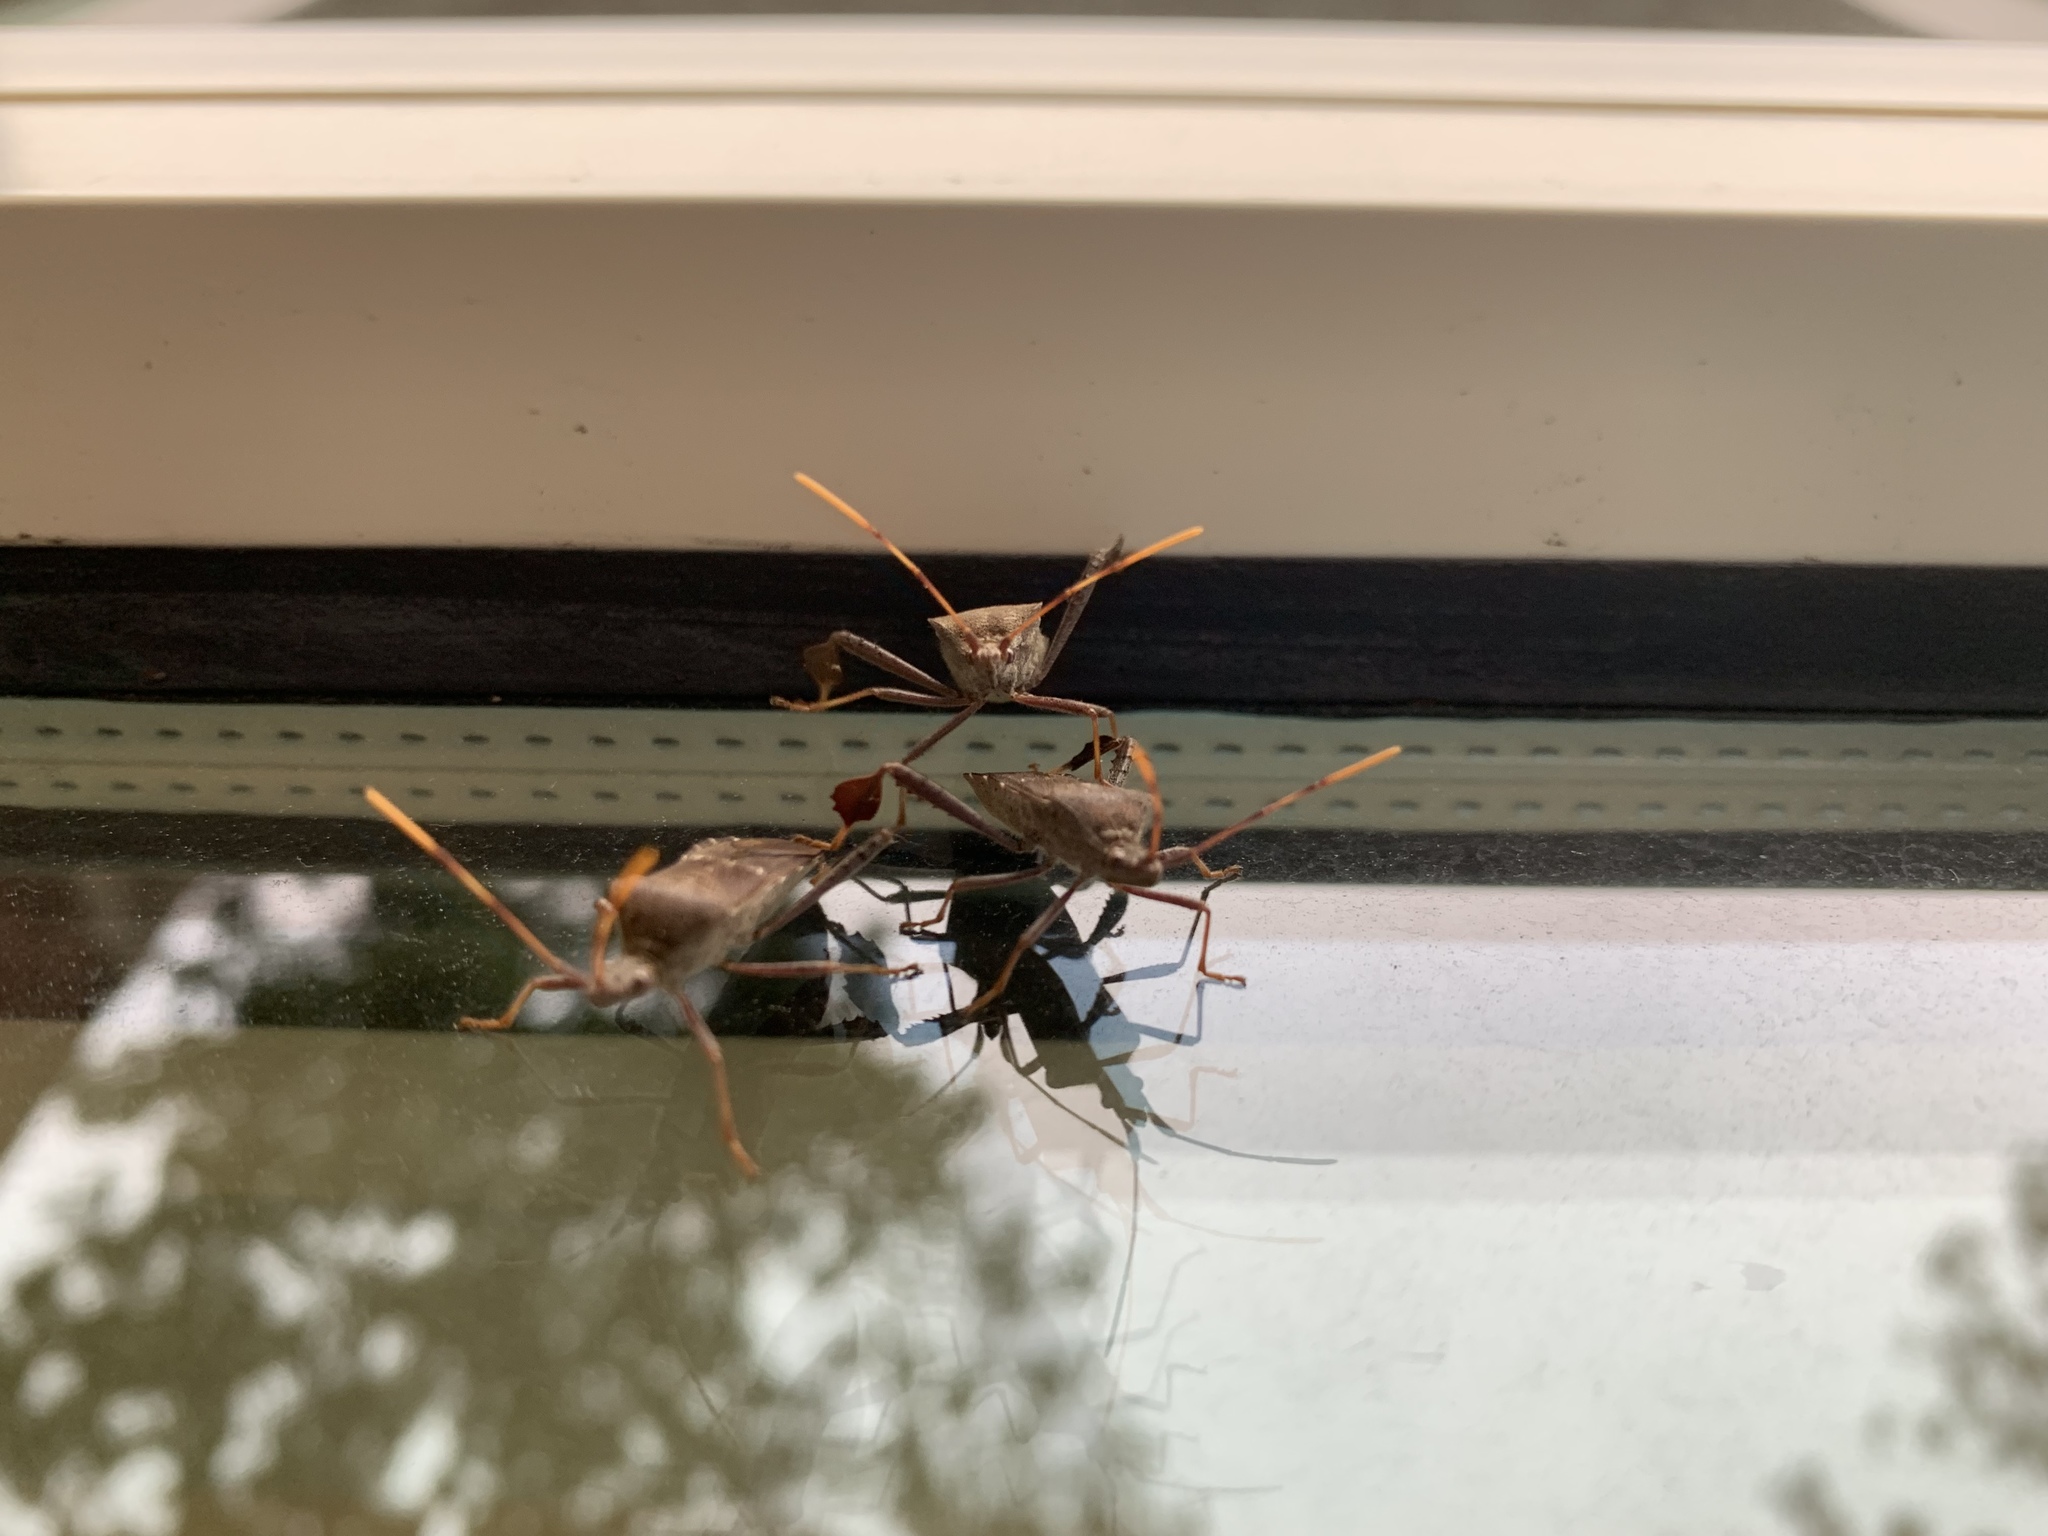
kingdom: Animalia
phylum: Arthropoda
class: Insecta
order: Hemiptera
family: Coreidae
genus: Leptoglossus
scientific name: Leptoglossus oppositus
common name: Northern leaf-footed bug
